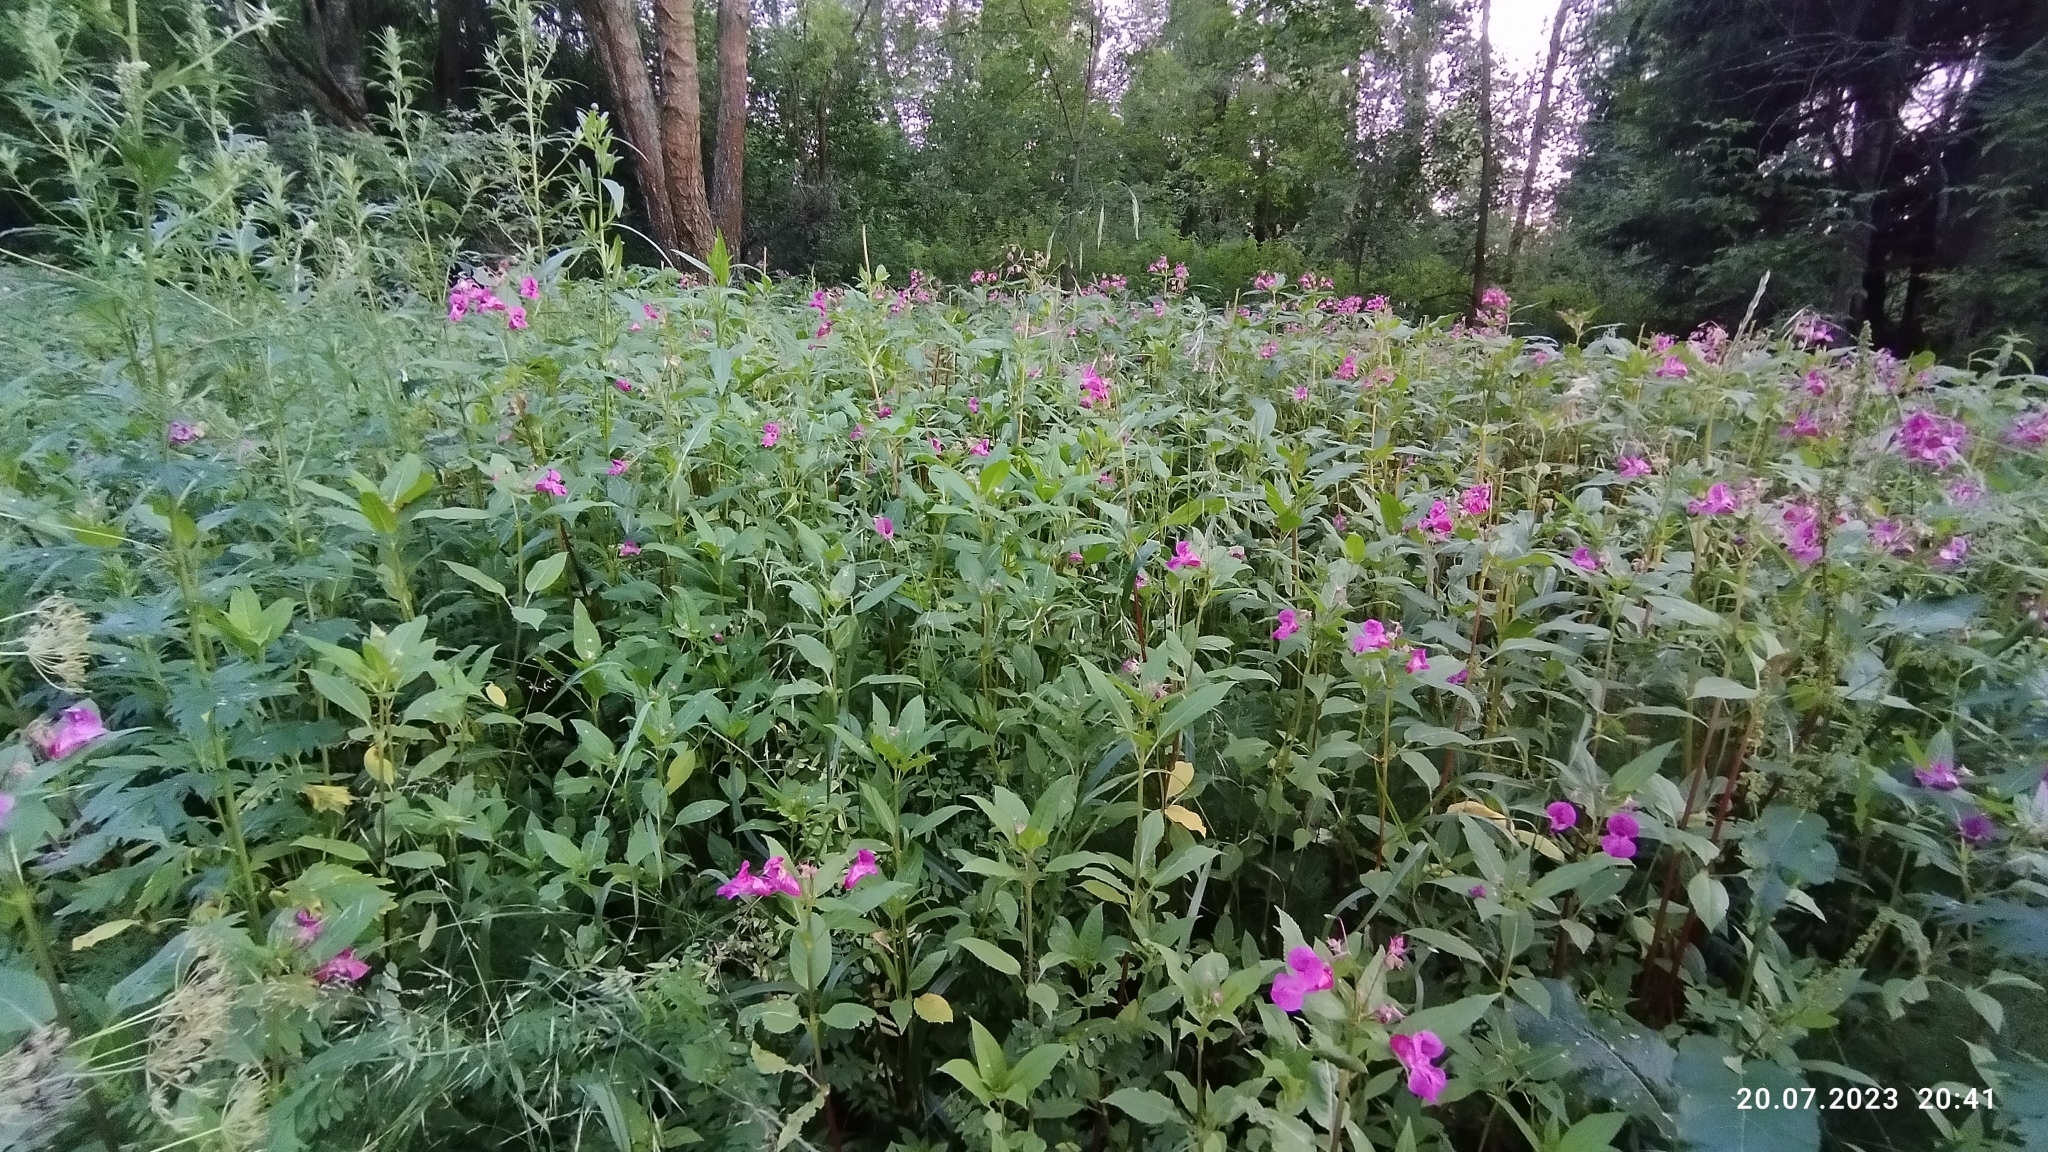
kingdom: Plantae
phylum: Tracheophyta
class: Magnoliopsida
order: Ericales
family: Balsaminaceae
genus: Impatiens
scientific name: Impatiens glandulifera
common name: Himalayan balsam
